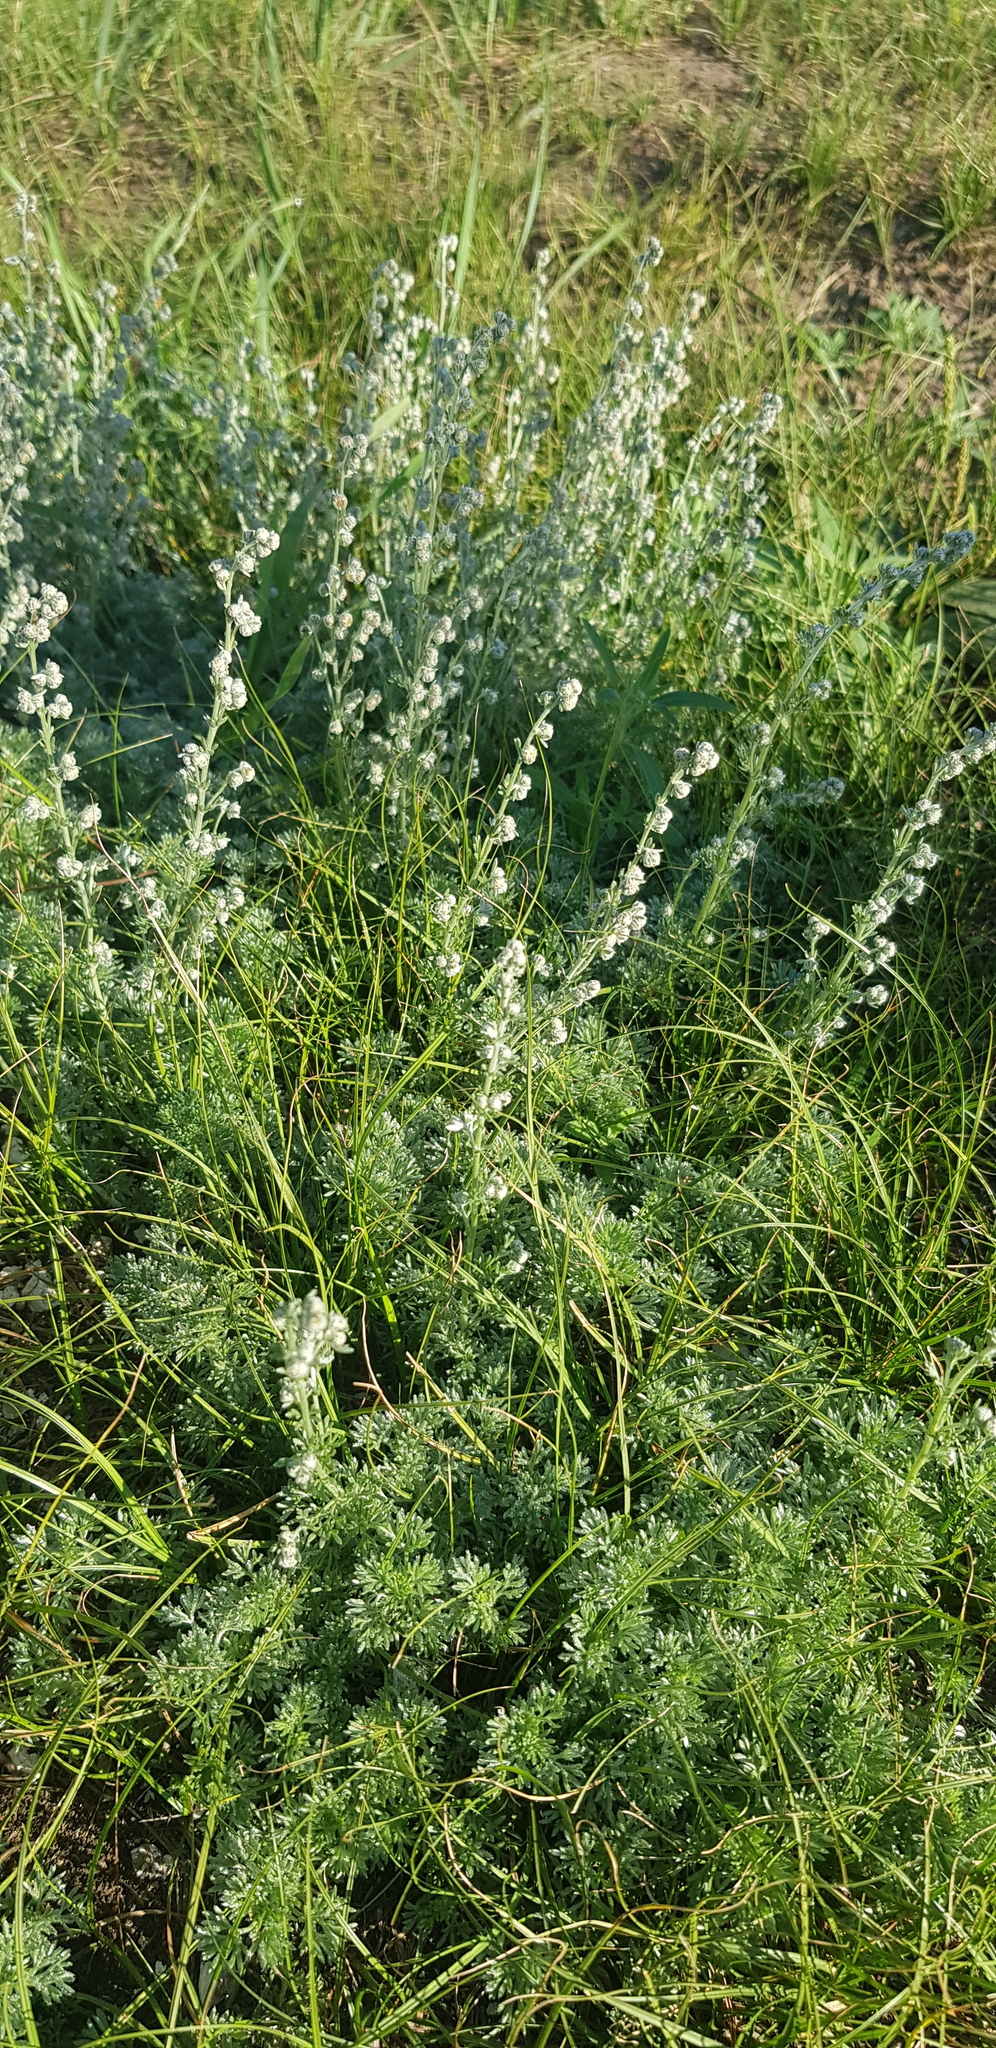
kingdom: Plantae
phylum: Tracheophyta
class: Magnoliopsida
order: Asterales
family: Asteraceae
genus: Artemisia
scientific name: Artemisia frigida
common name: Prairie sagewort
